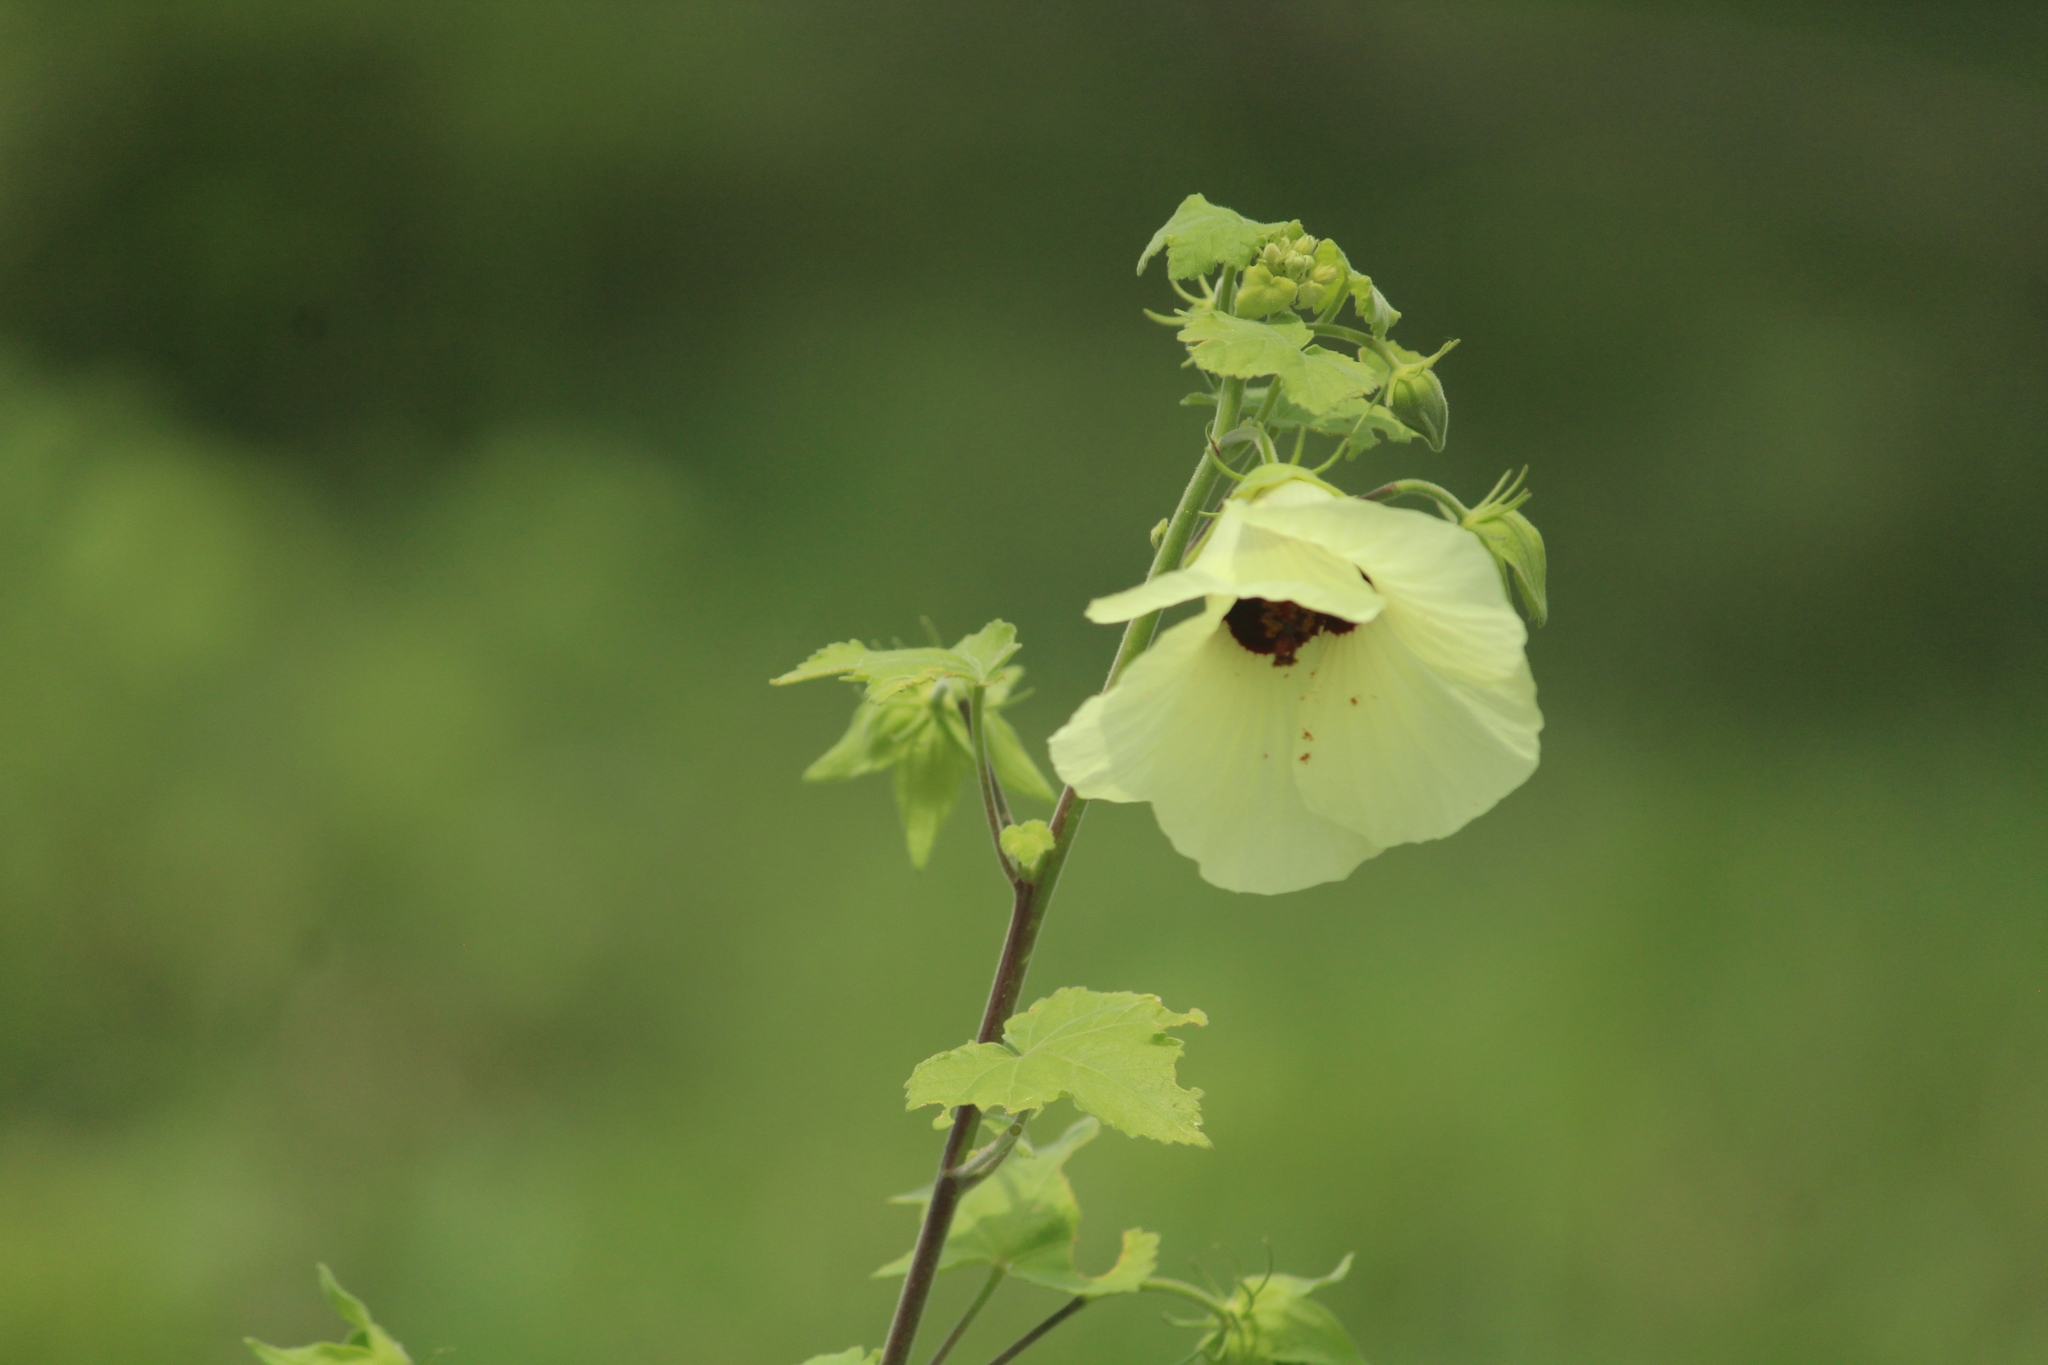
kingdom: Plantae
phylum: Tracheophyta
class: Magnoliopsida
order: Malvales
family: Malvaceae
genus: Hibiscus
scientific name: Hibiscus vitifolius
